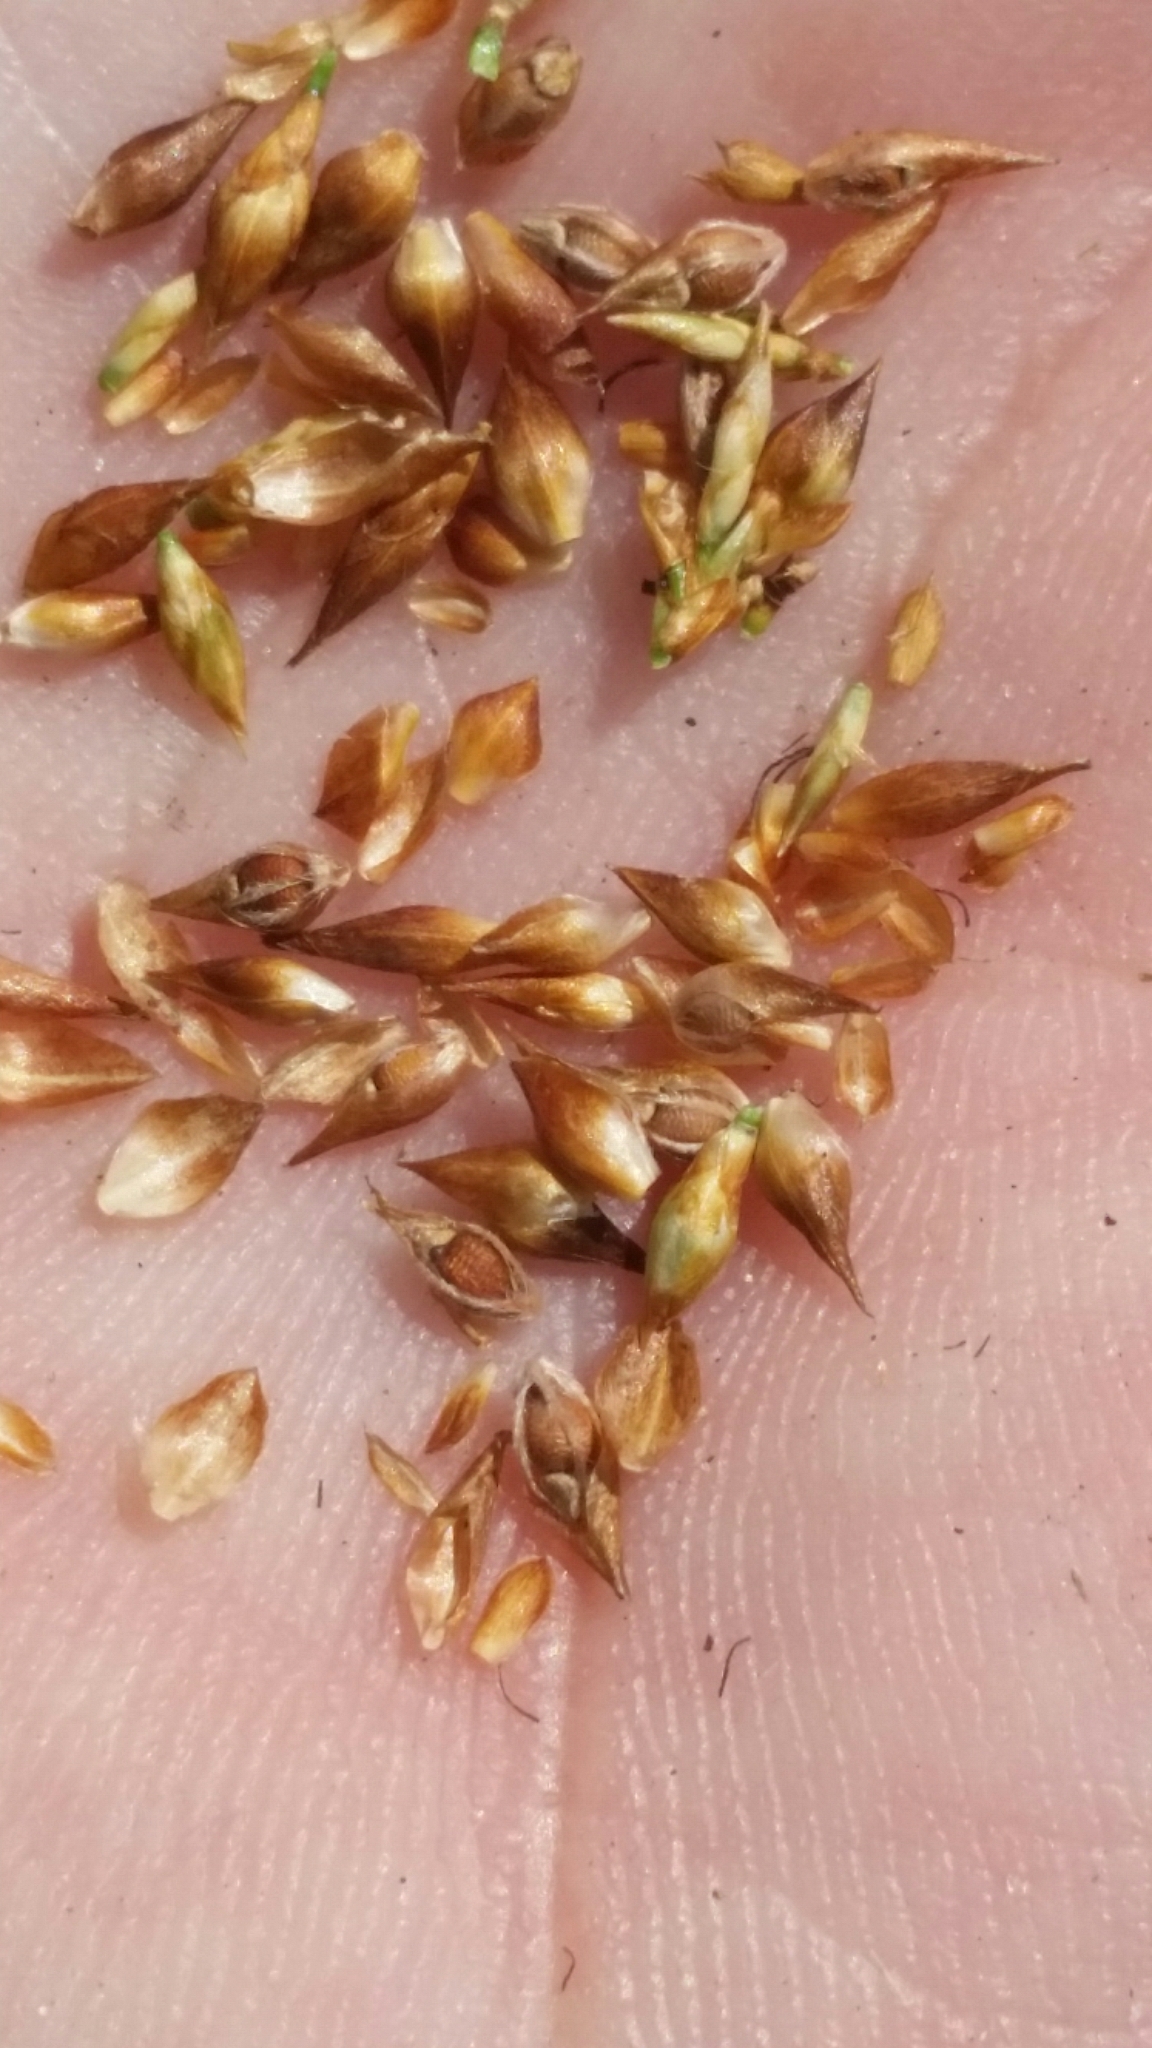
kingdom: Plantae
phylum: Tracheophyta
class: Liliopsida
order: Poales
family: Cyperaceae
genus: Rhynchospora
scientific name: Rhynchospora plumosa
